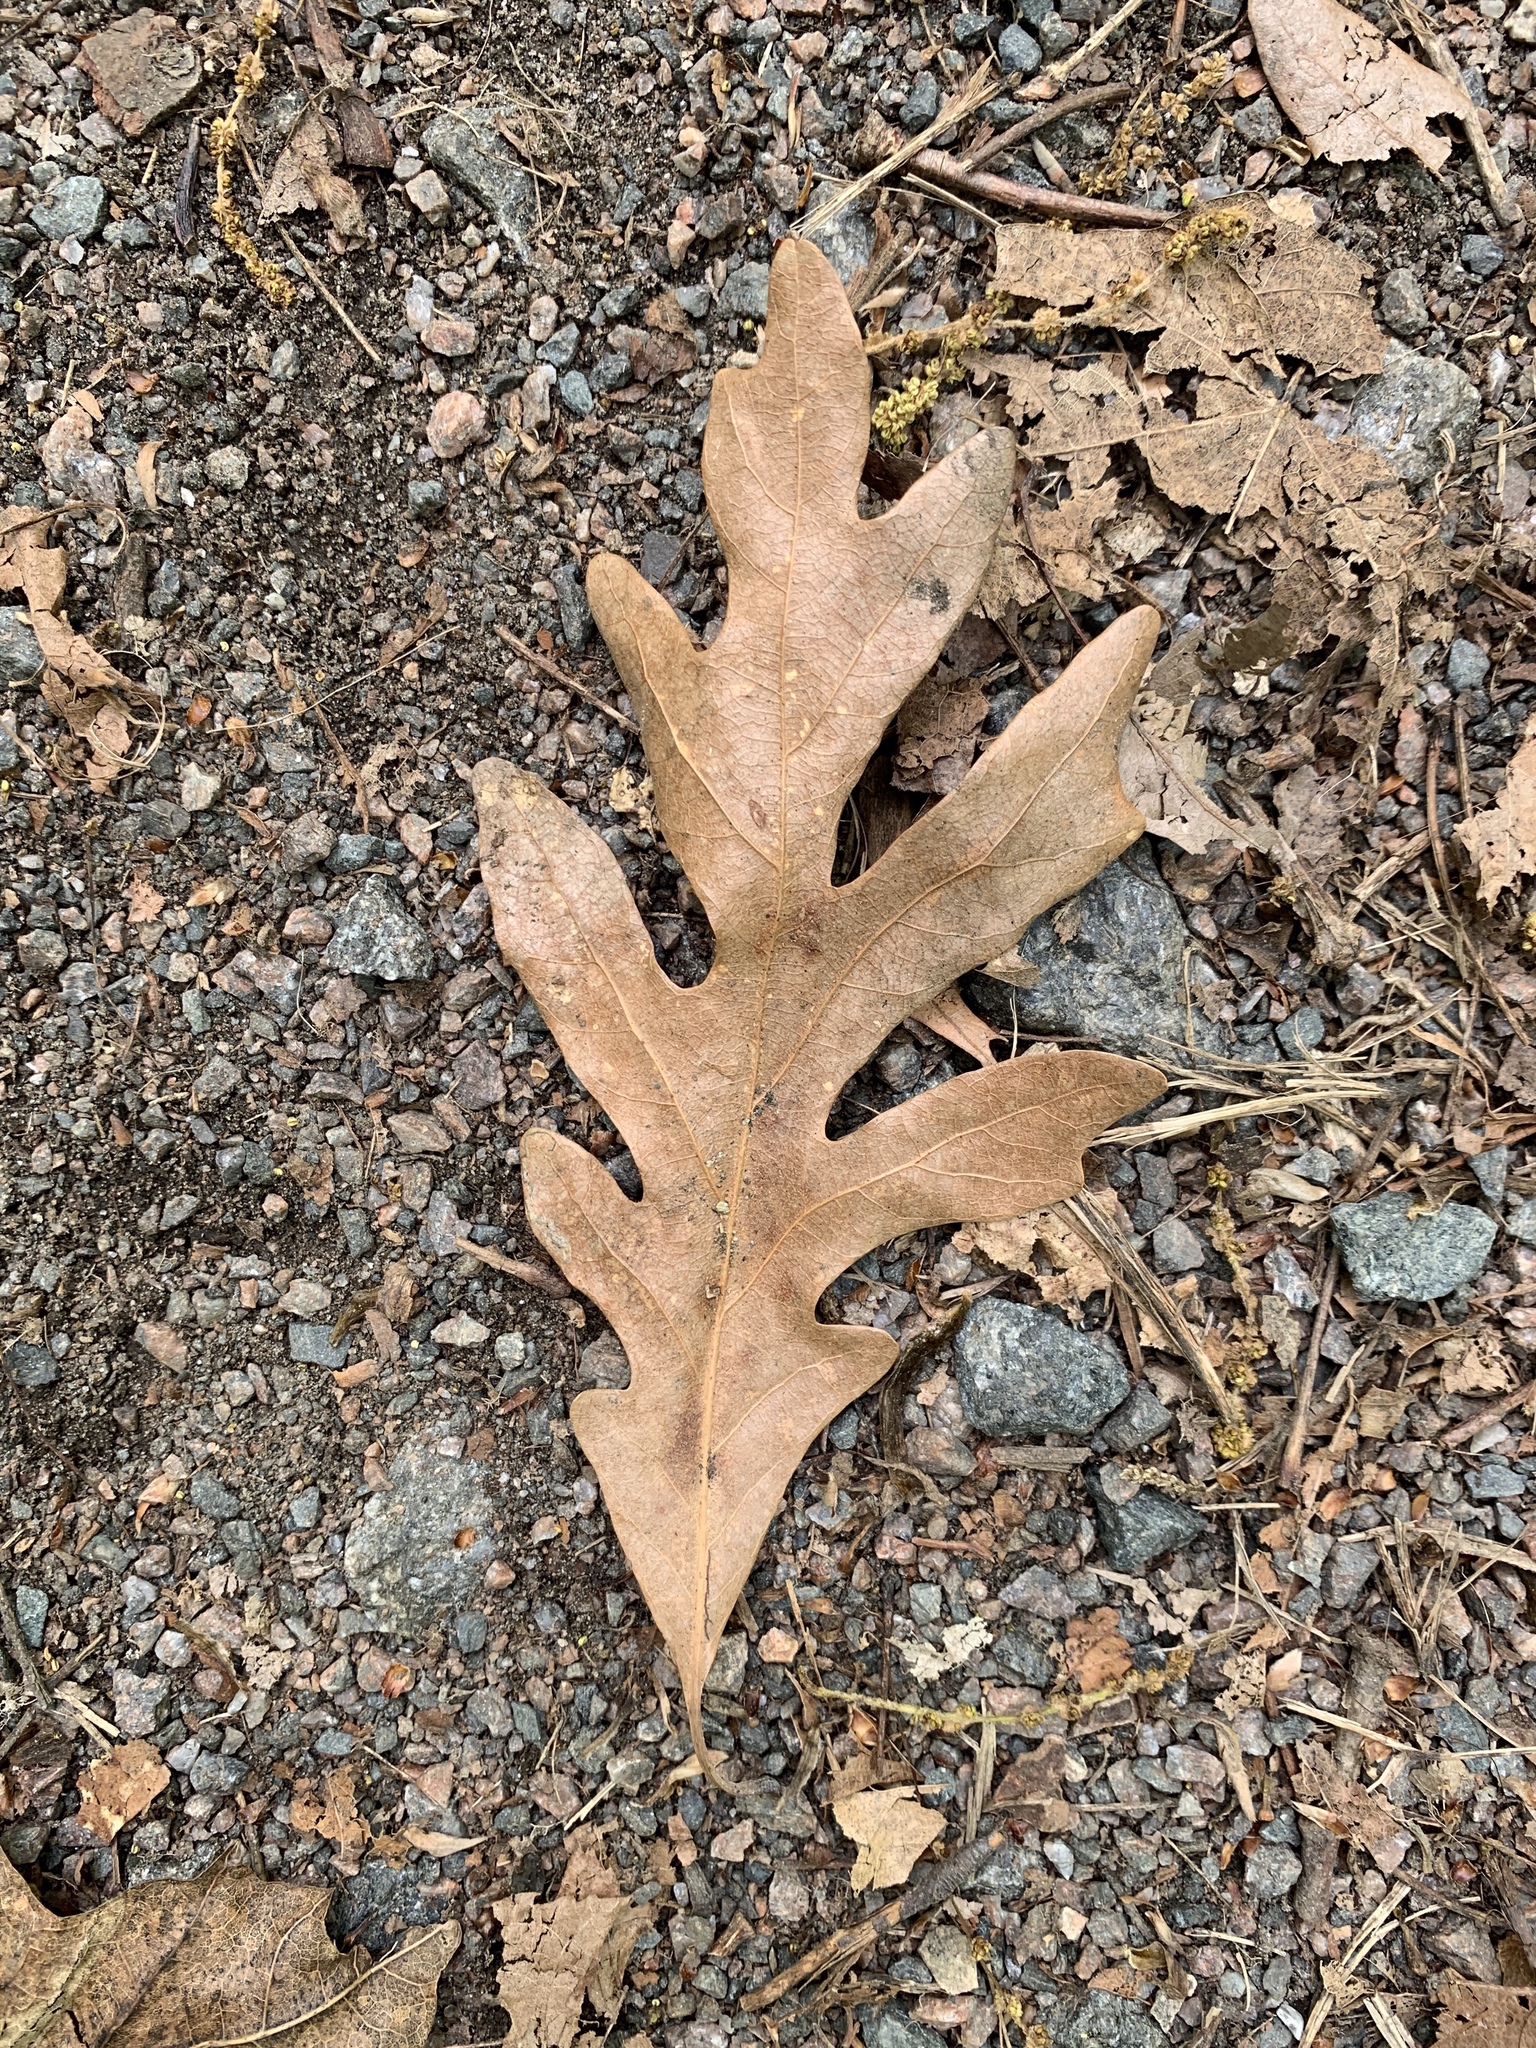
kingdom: Plantae
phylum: Tracheophyta
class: Magnoliopsida
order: Fagales
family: Fagaceae
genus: Quercus
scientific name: Quercus alba
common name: White oak
